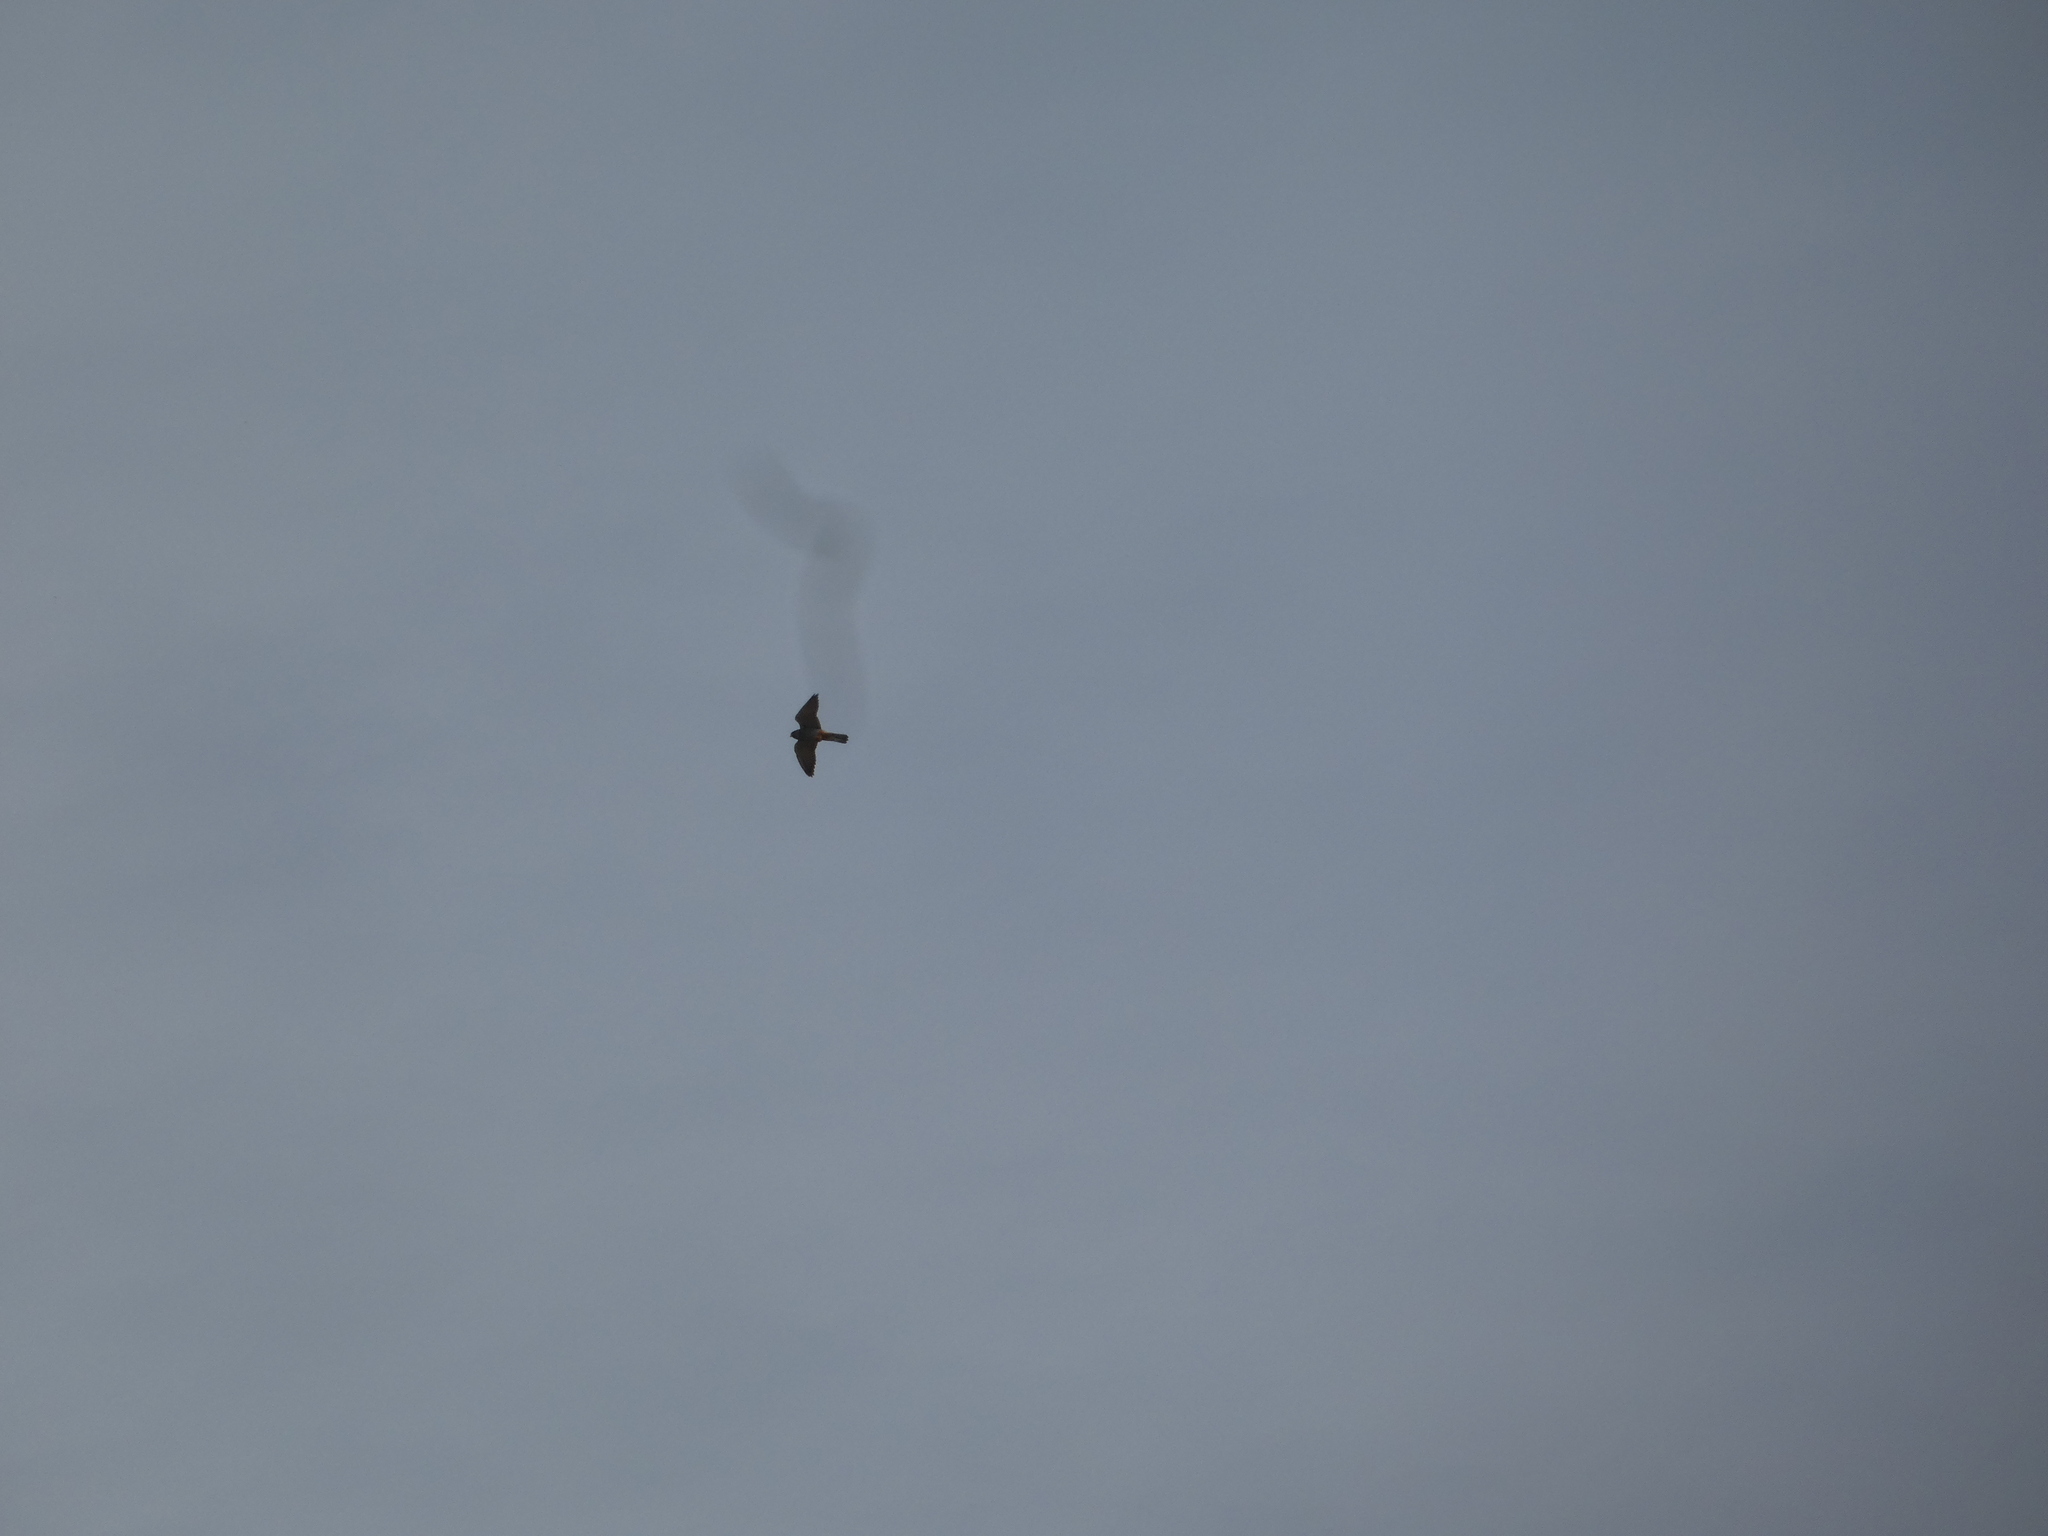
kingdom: Animalia
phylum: Chordata
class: Aves
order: Falconiformes
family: Falconidae
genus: Falco
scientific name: Falco vespertinus
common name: Red-footed falcon
